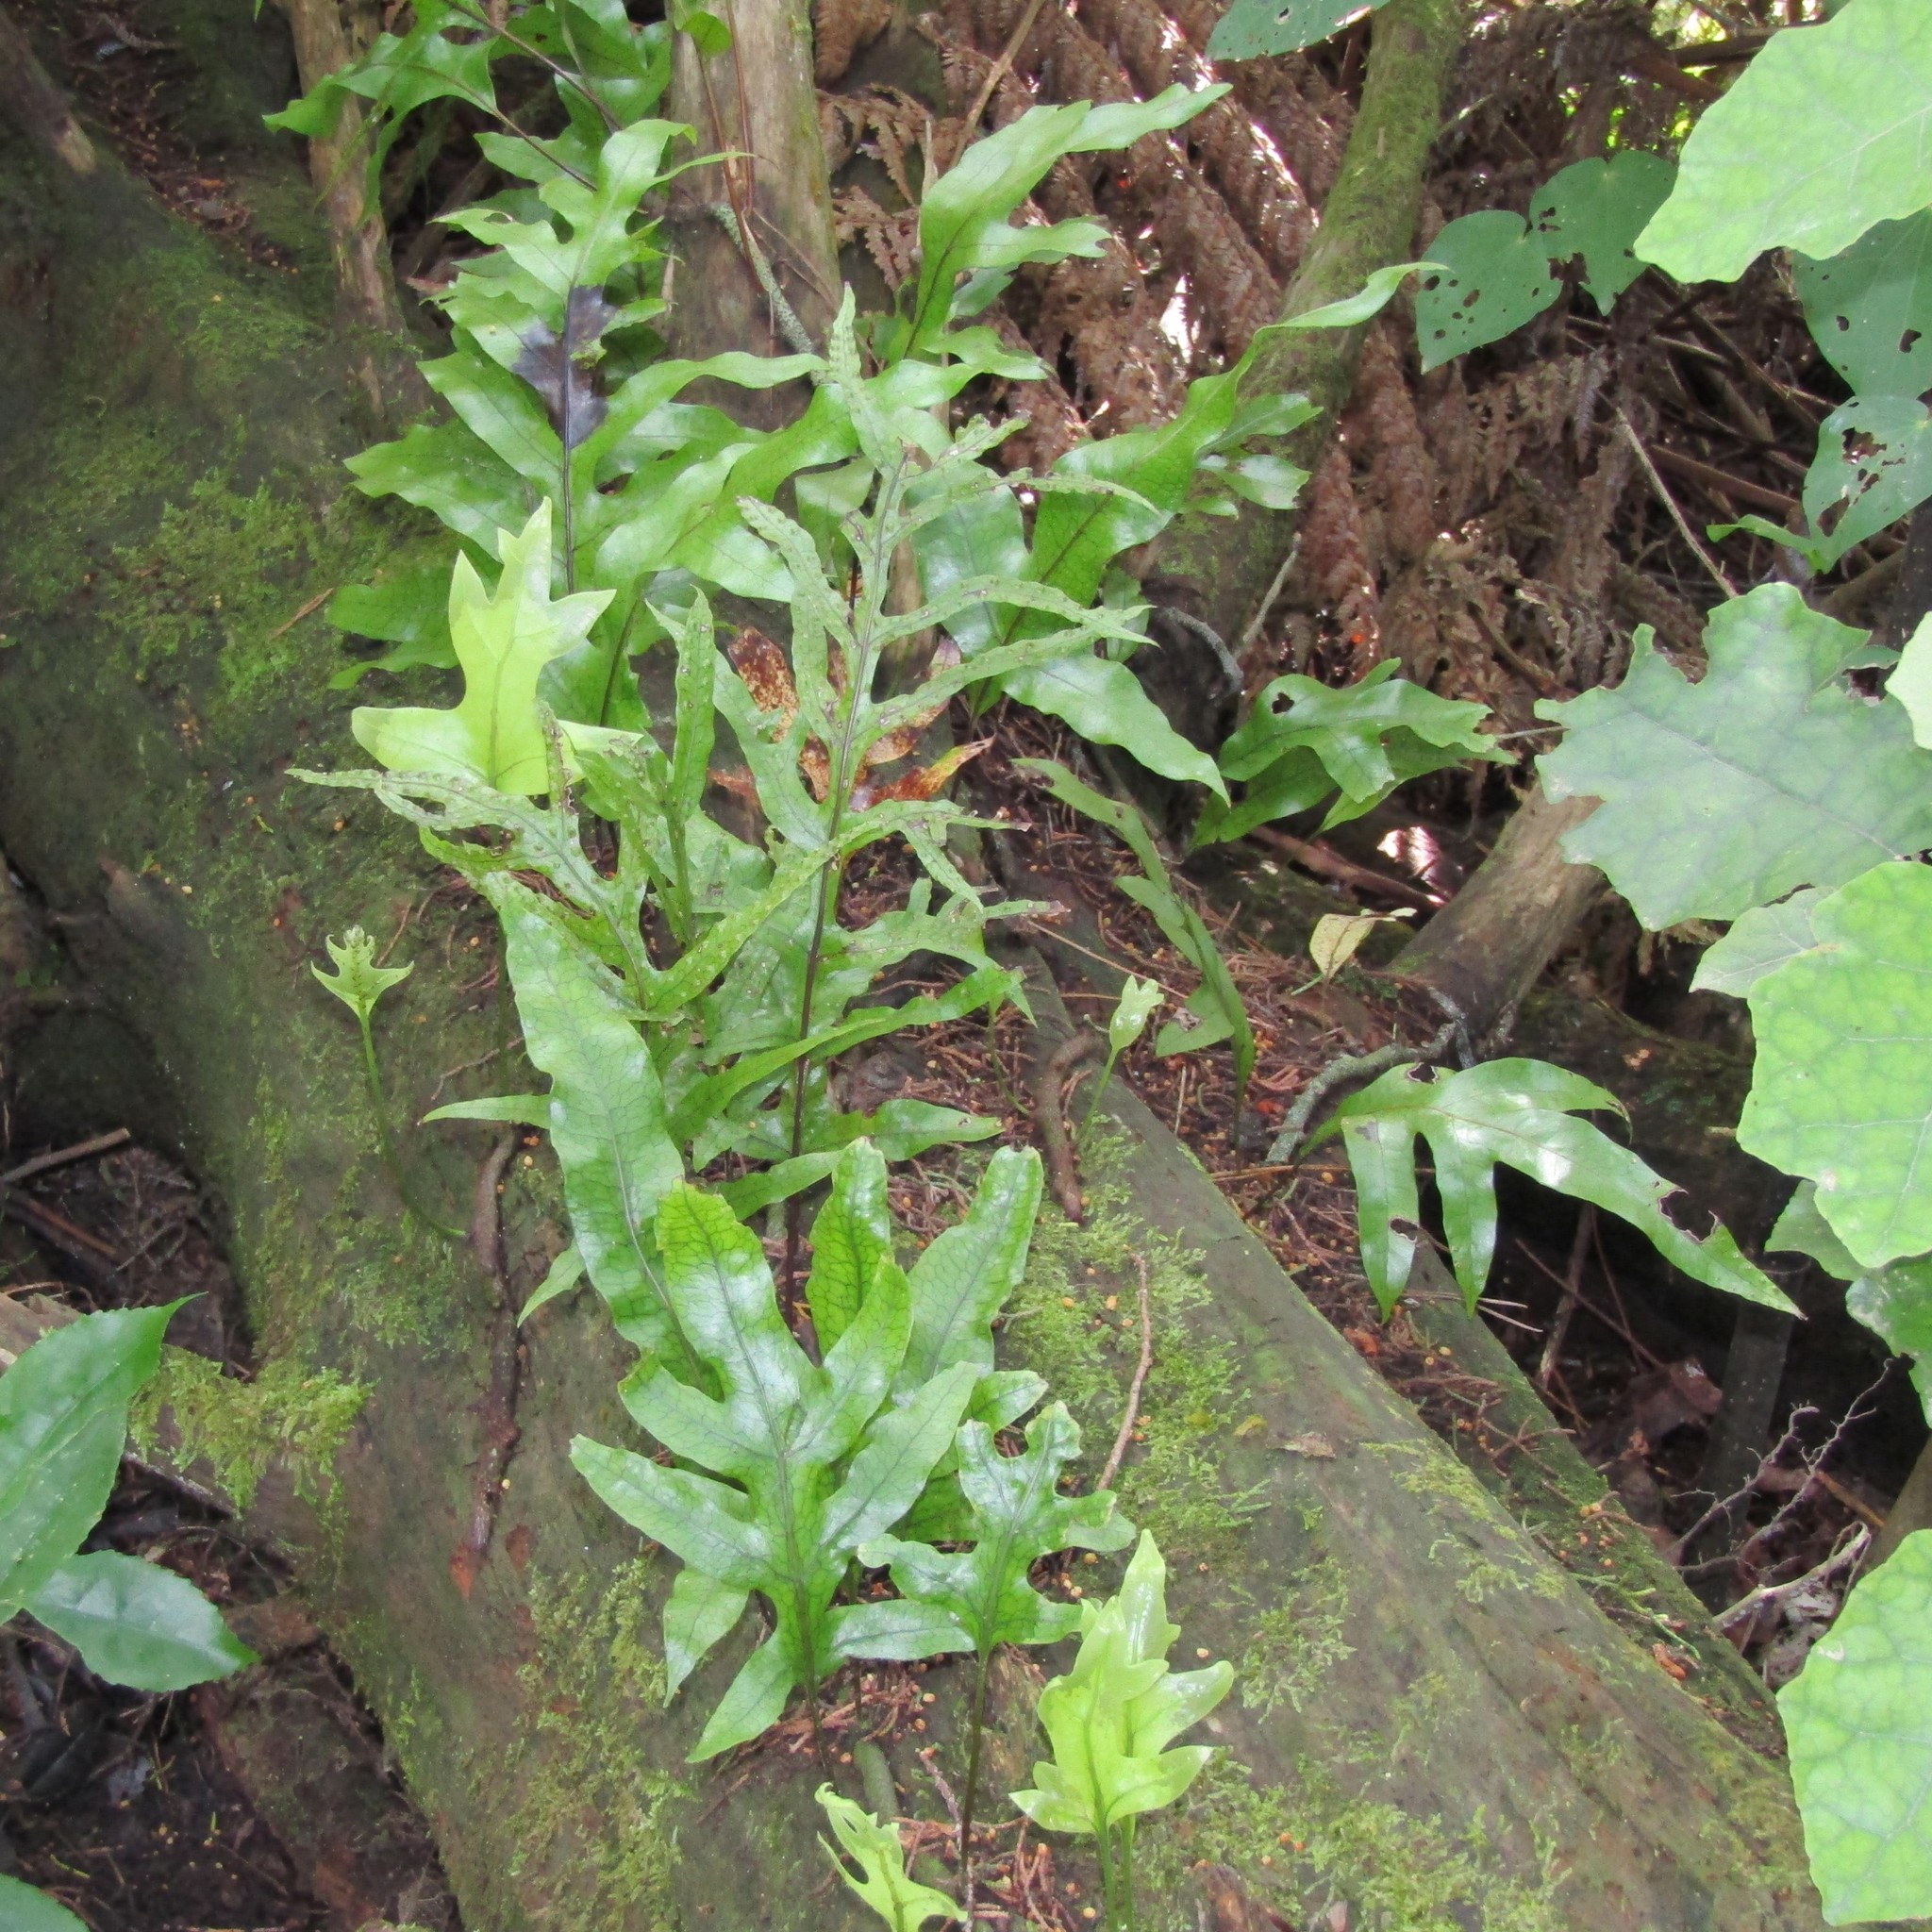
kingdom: Plantae
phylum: Tracheophyta
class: Polypodiopsida
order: Polypodiales
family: Polypodiaceae
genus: Lecanopteris
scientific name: Lecanopteris pustulata
